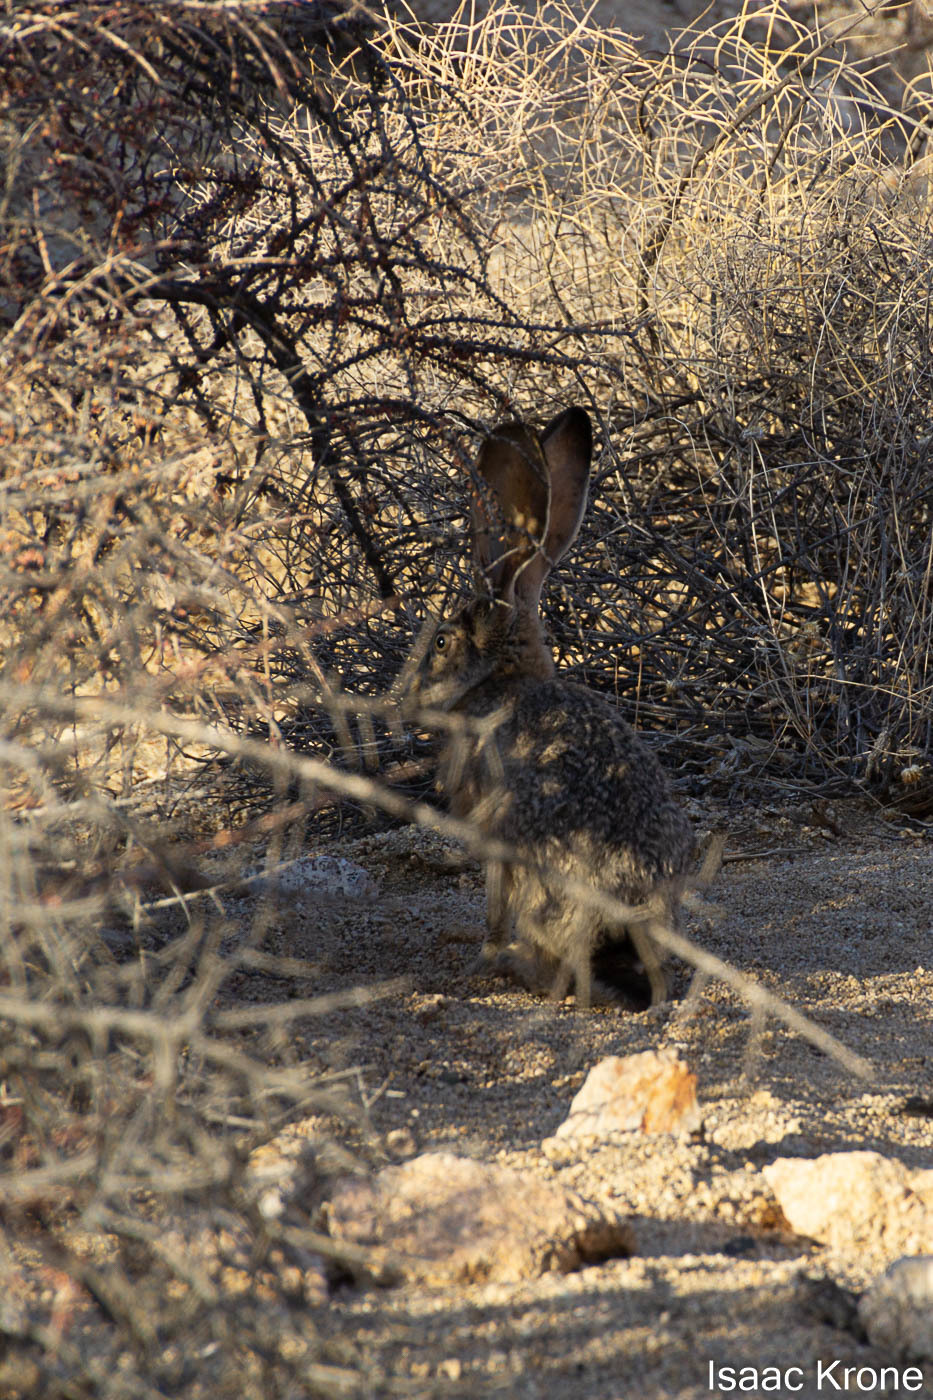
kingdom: Animalia
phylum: Chordata
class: Mammalia
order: Lagomorpha
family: Leporidae
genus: Lepus
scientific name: Lepus californicus
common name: Black-tailed jackrabbit
